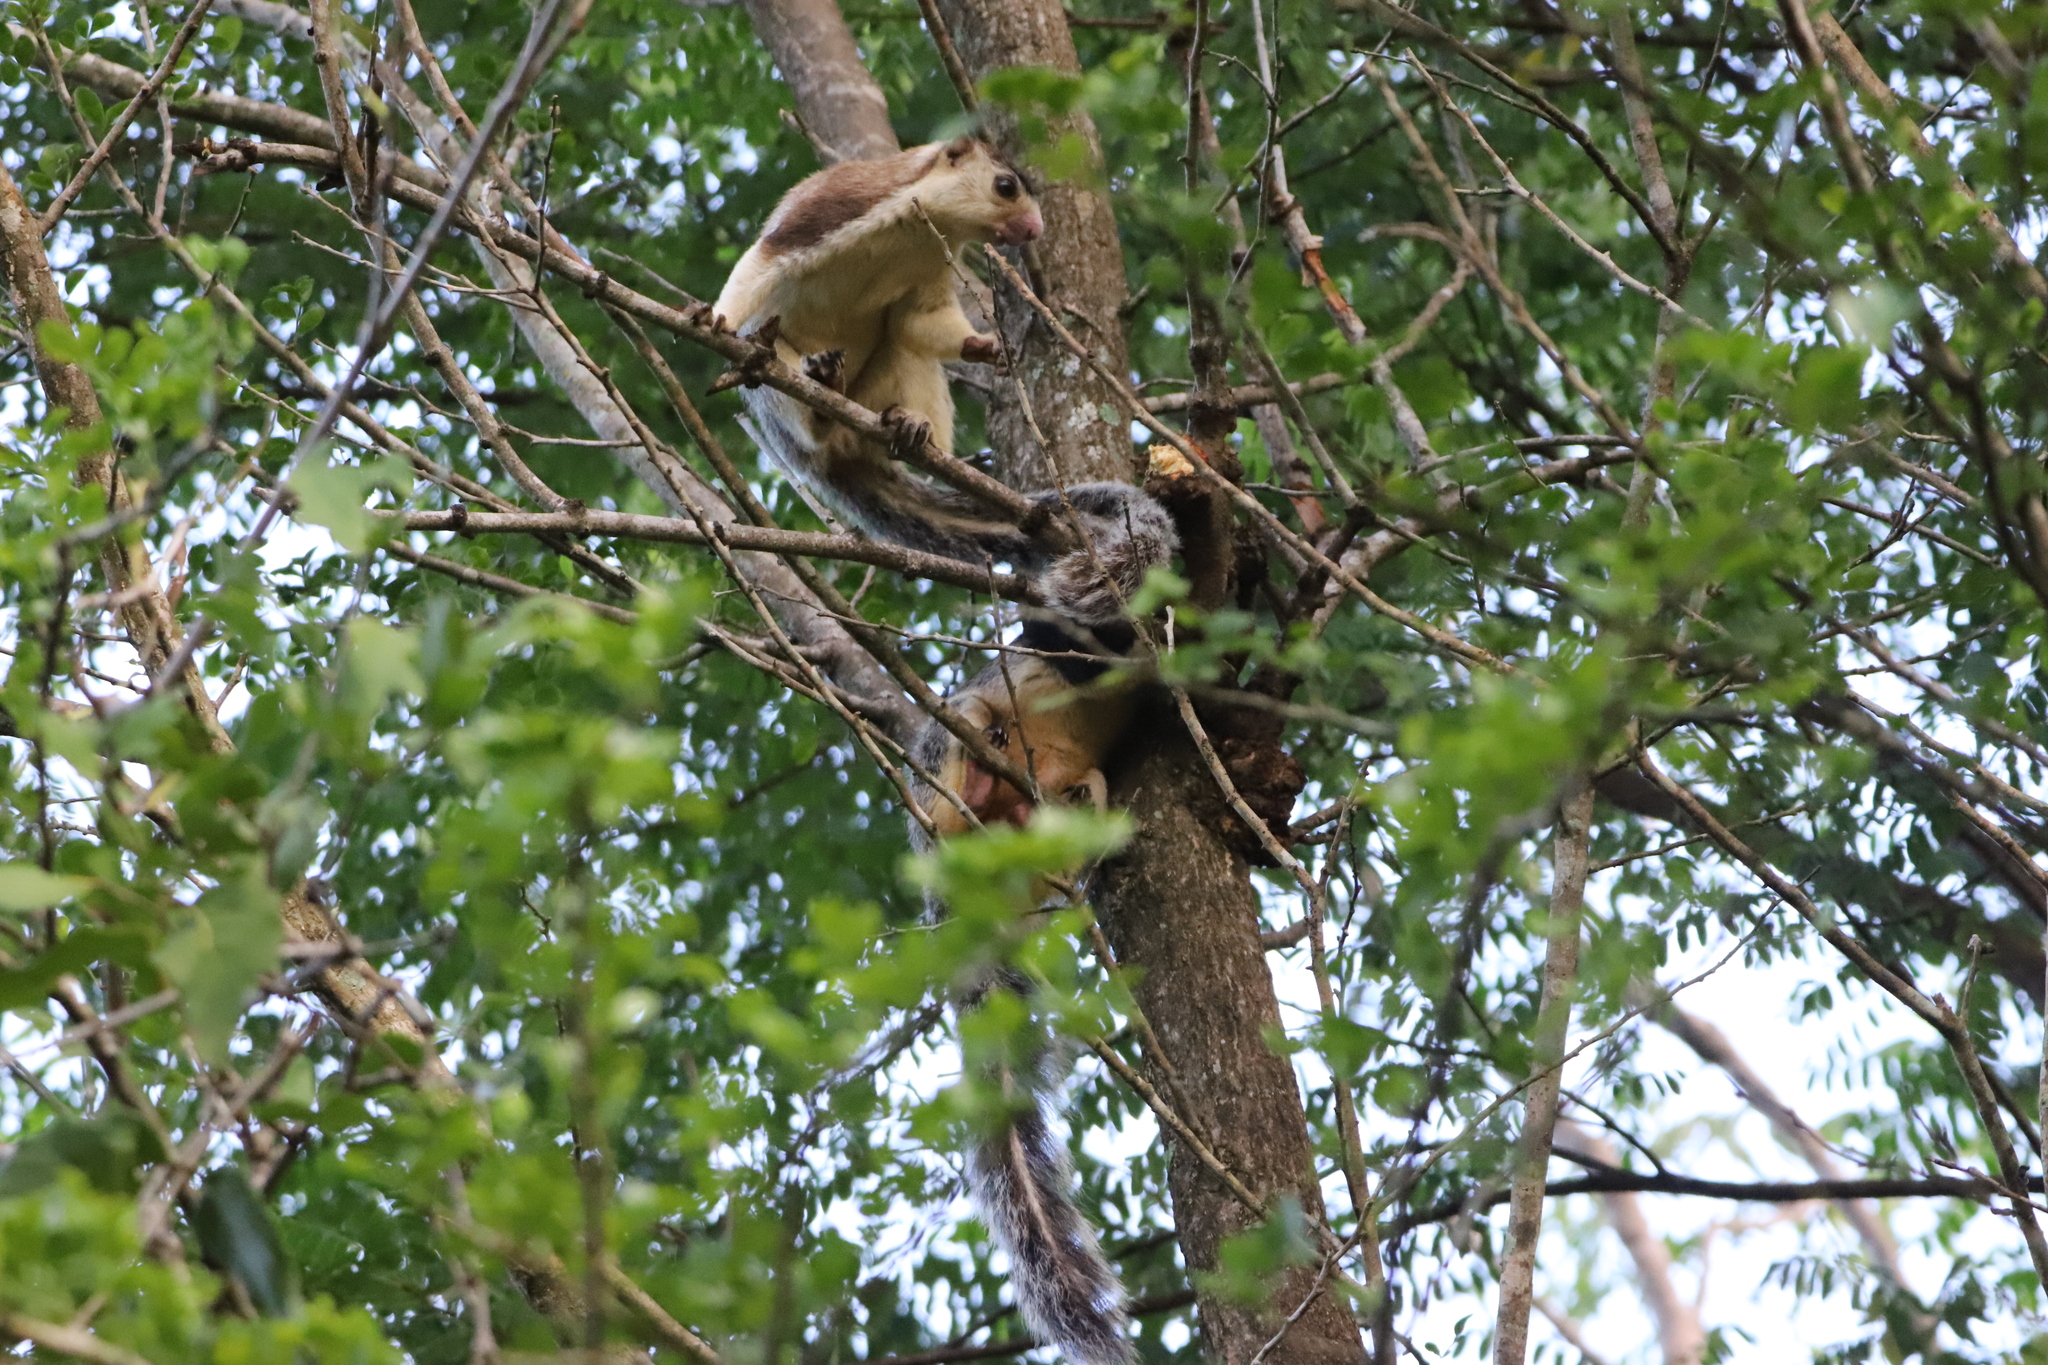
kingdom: Animalia
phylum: Chordata
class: Mammalia
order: Rodentia
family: Sciuridae
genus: Ratufa
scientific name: Ratufa macroura
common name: Sri lankan giant squirrel
